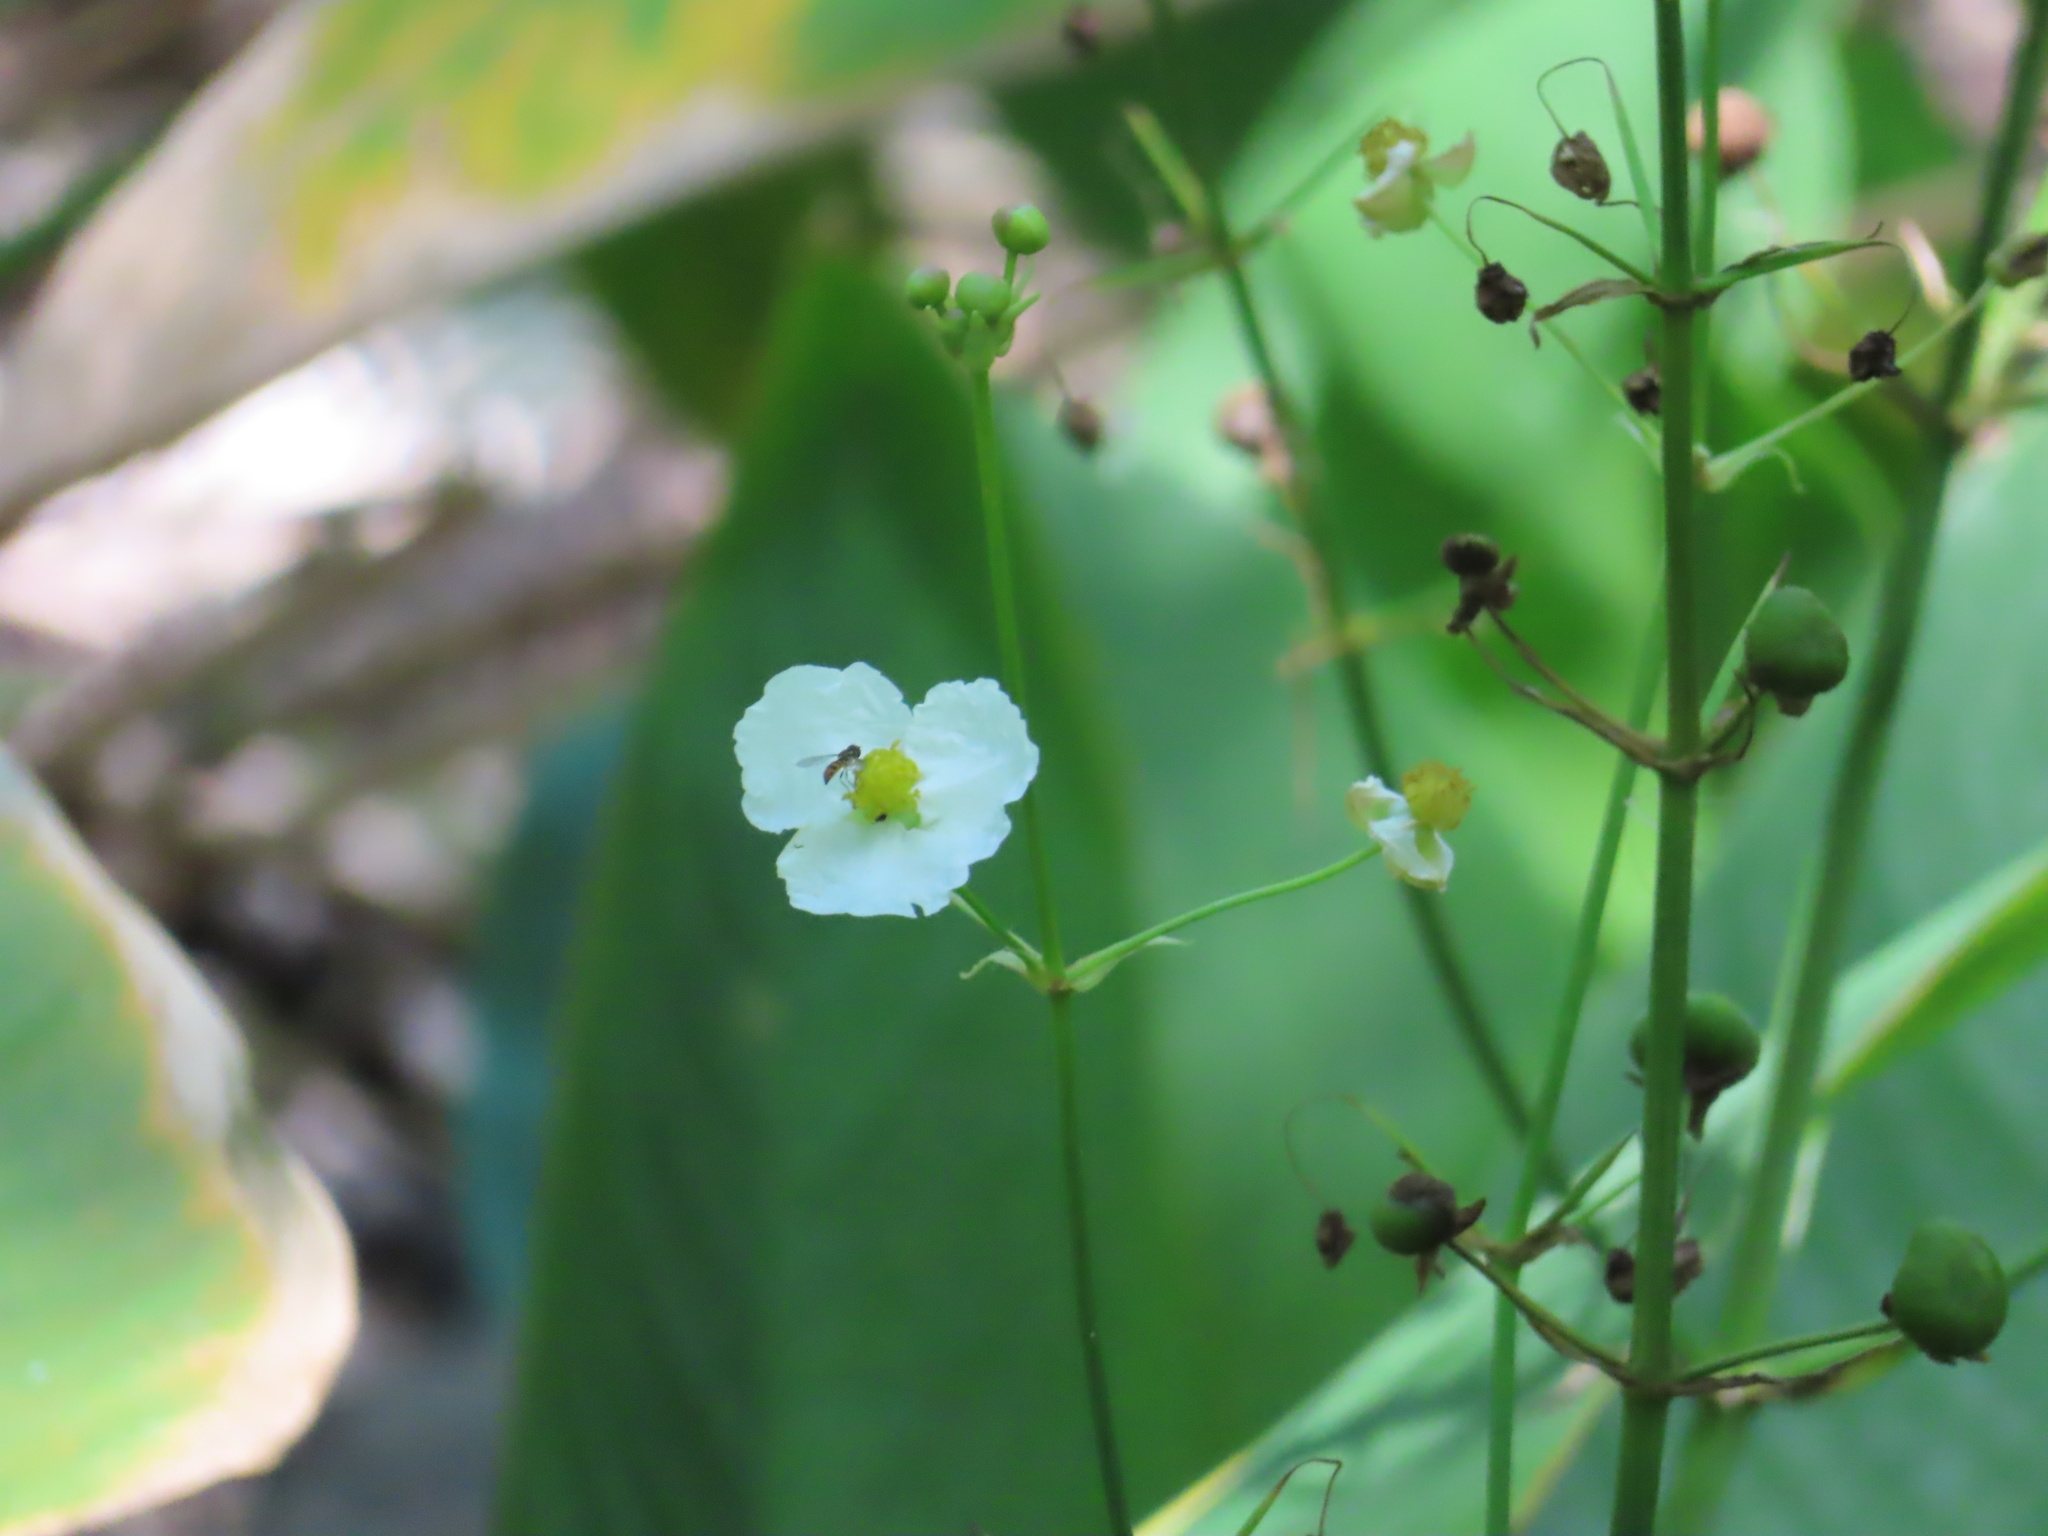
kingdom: Plantae
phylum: Tracheophyta
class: Liliopsida
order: Alismatales
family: Alismataceae
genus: Sagittaria
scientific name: Sagittaria lancifolia
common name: Lance-leaf arrowhead
